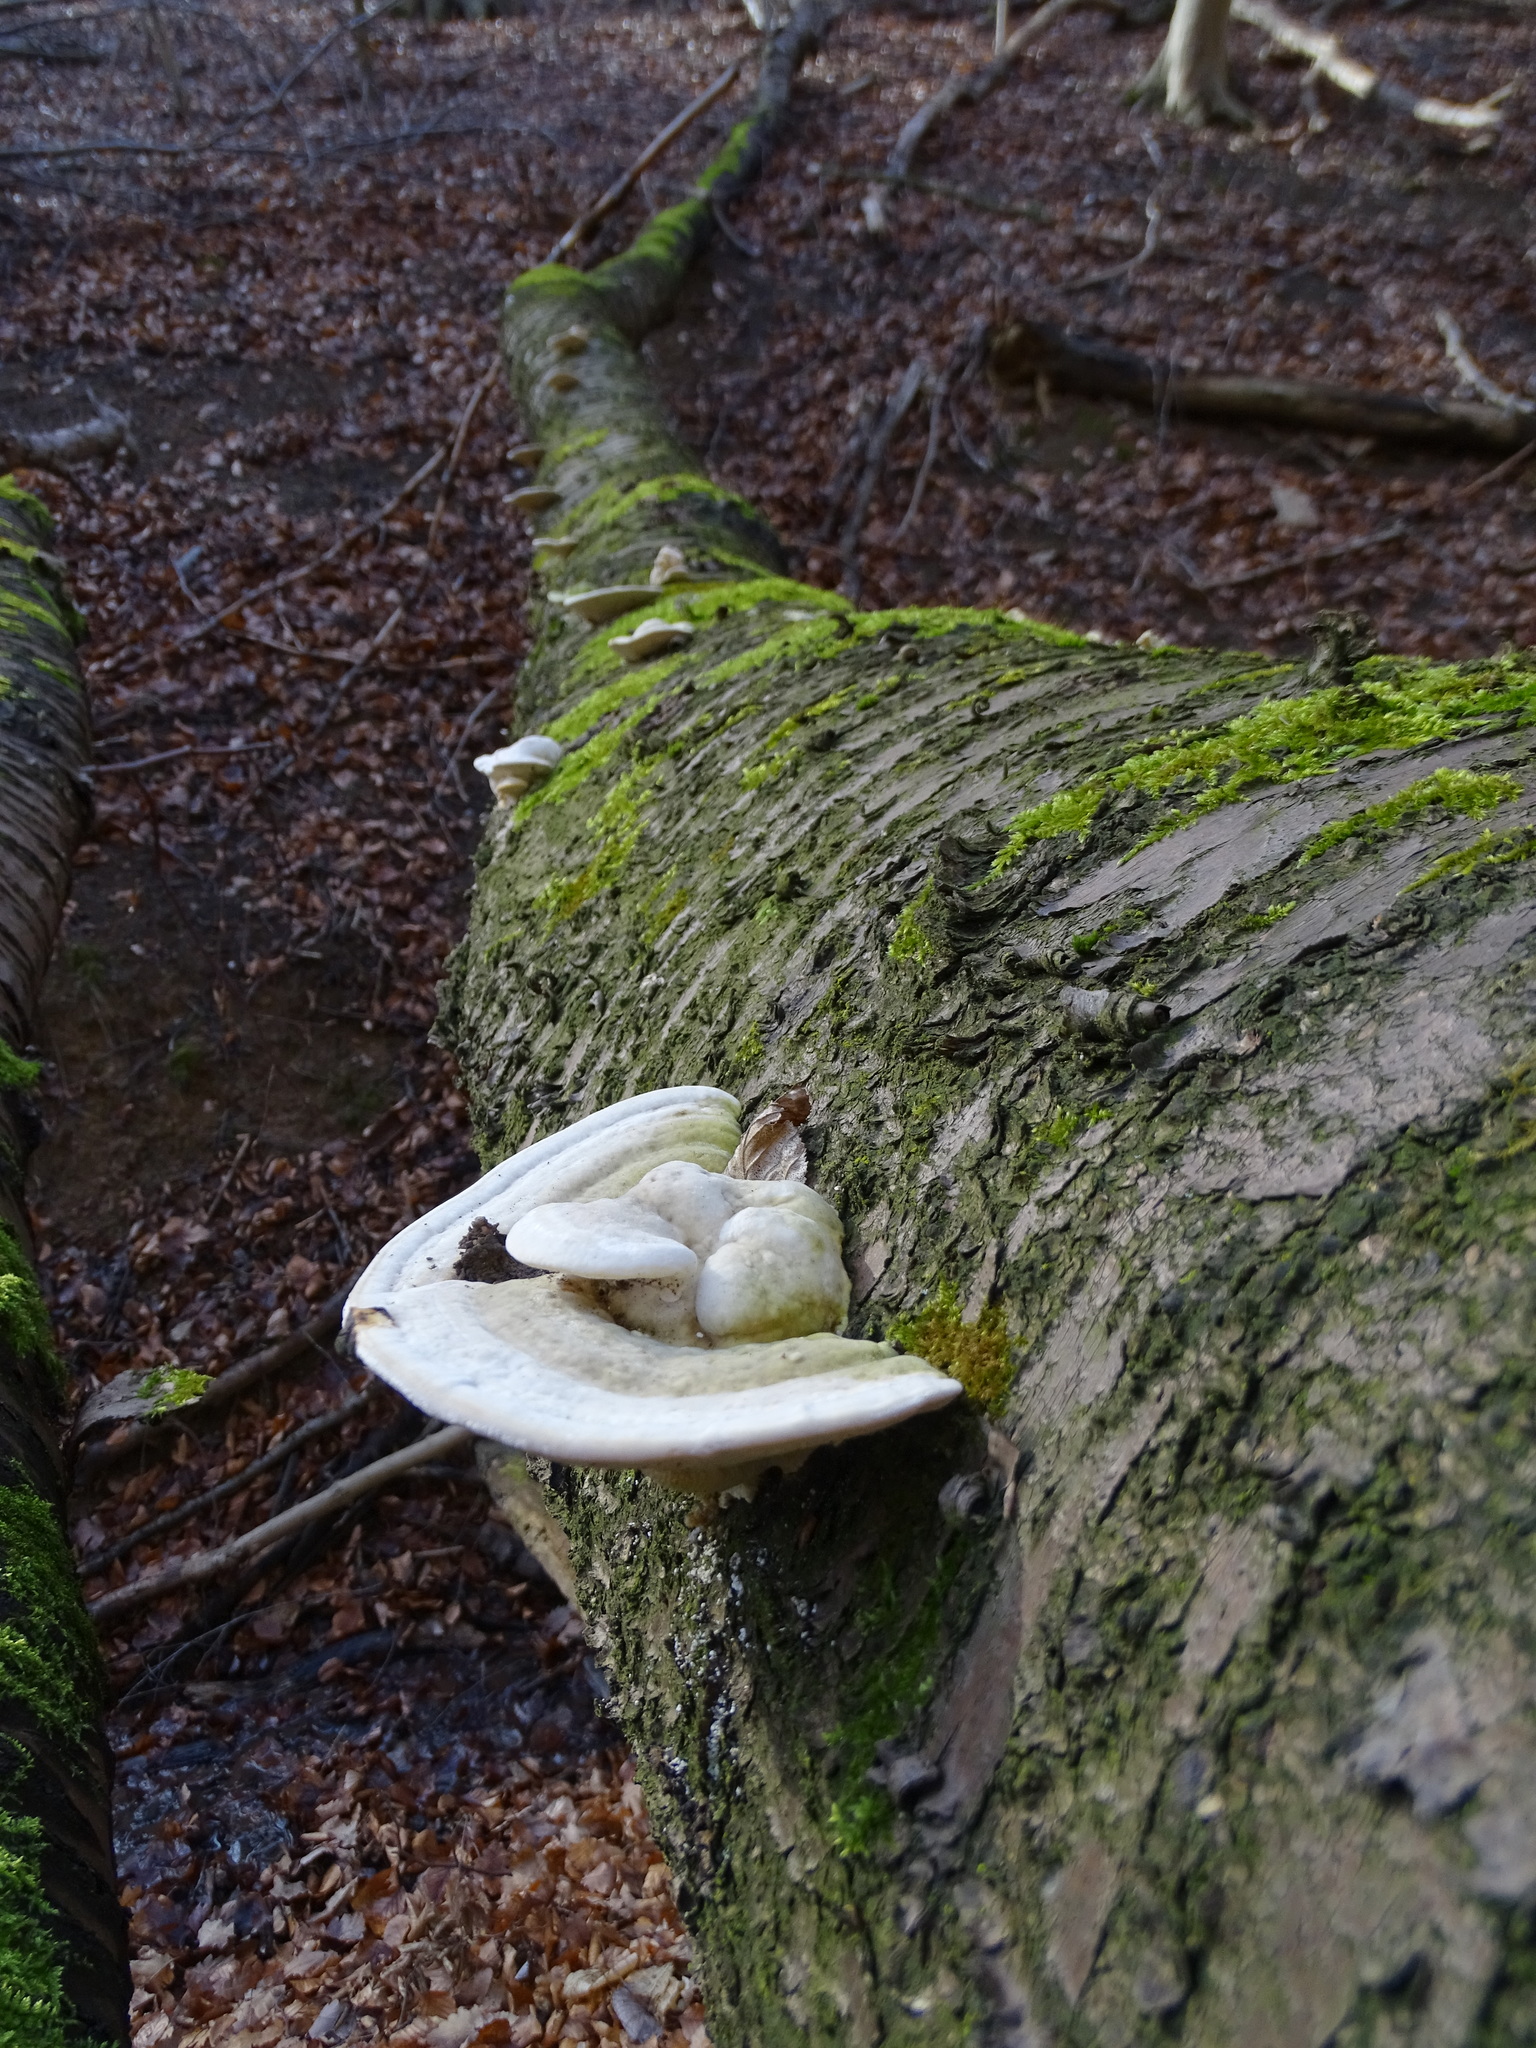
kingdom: Fungi
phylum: Basidiomycota
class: Agaricomycetes
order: Polyporales
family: Polyporaceae
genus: Trametes
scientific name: Trametes gibbosa
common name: Lumpy bracket
